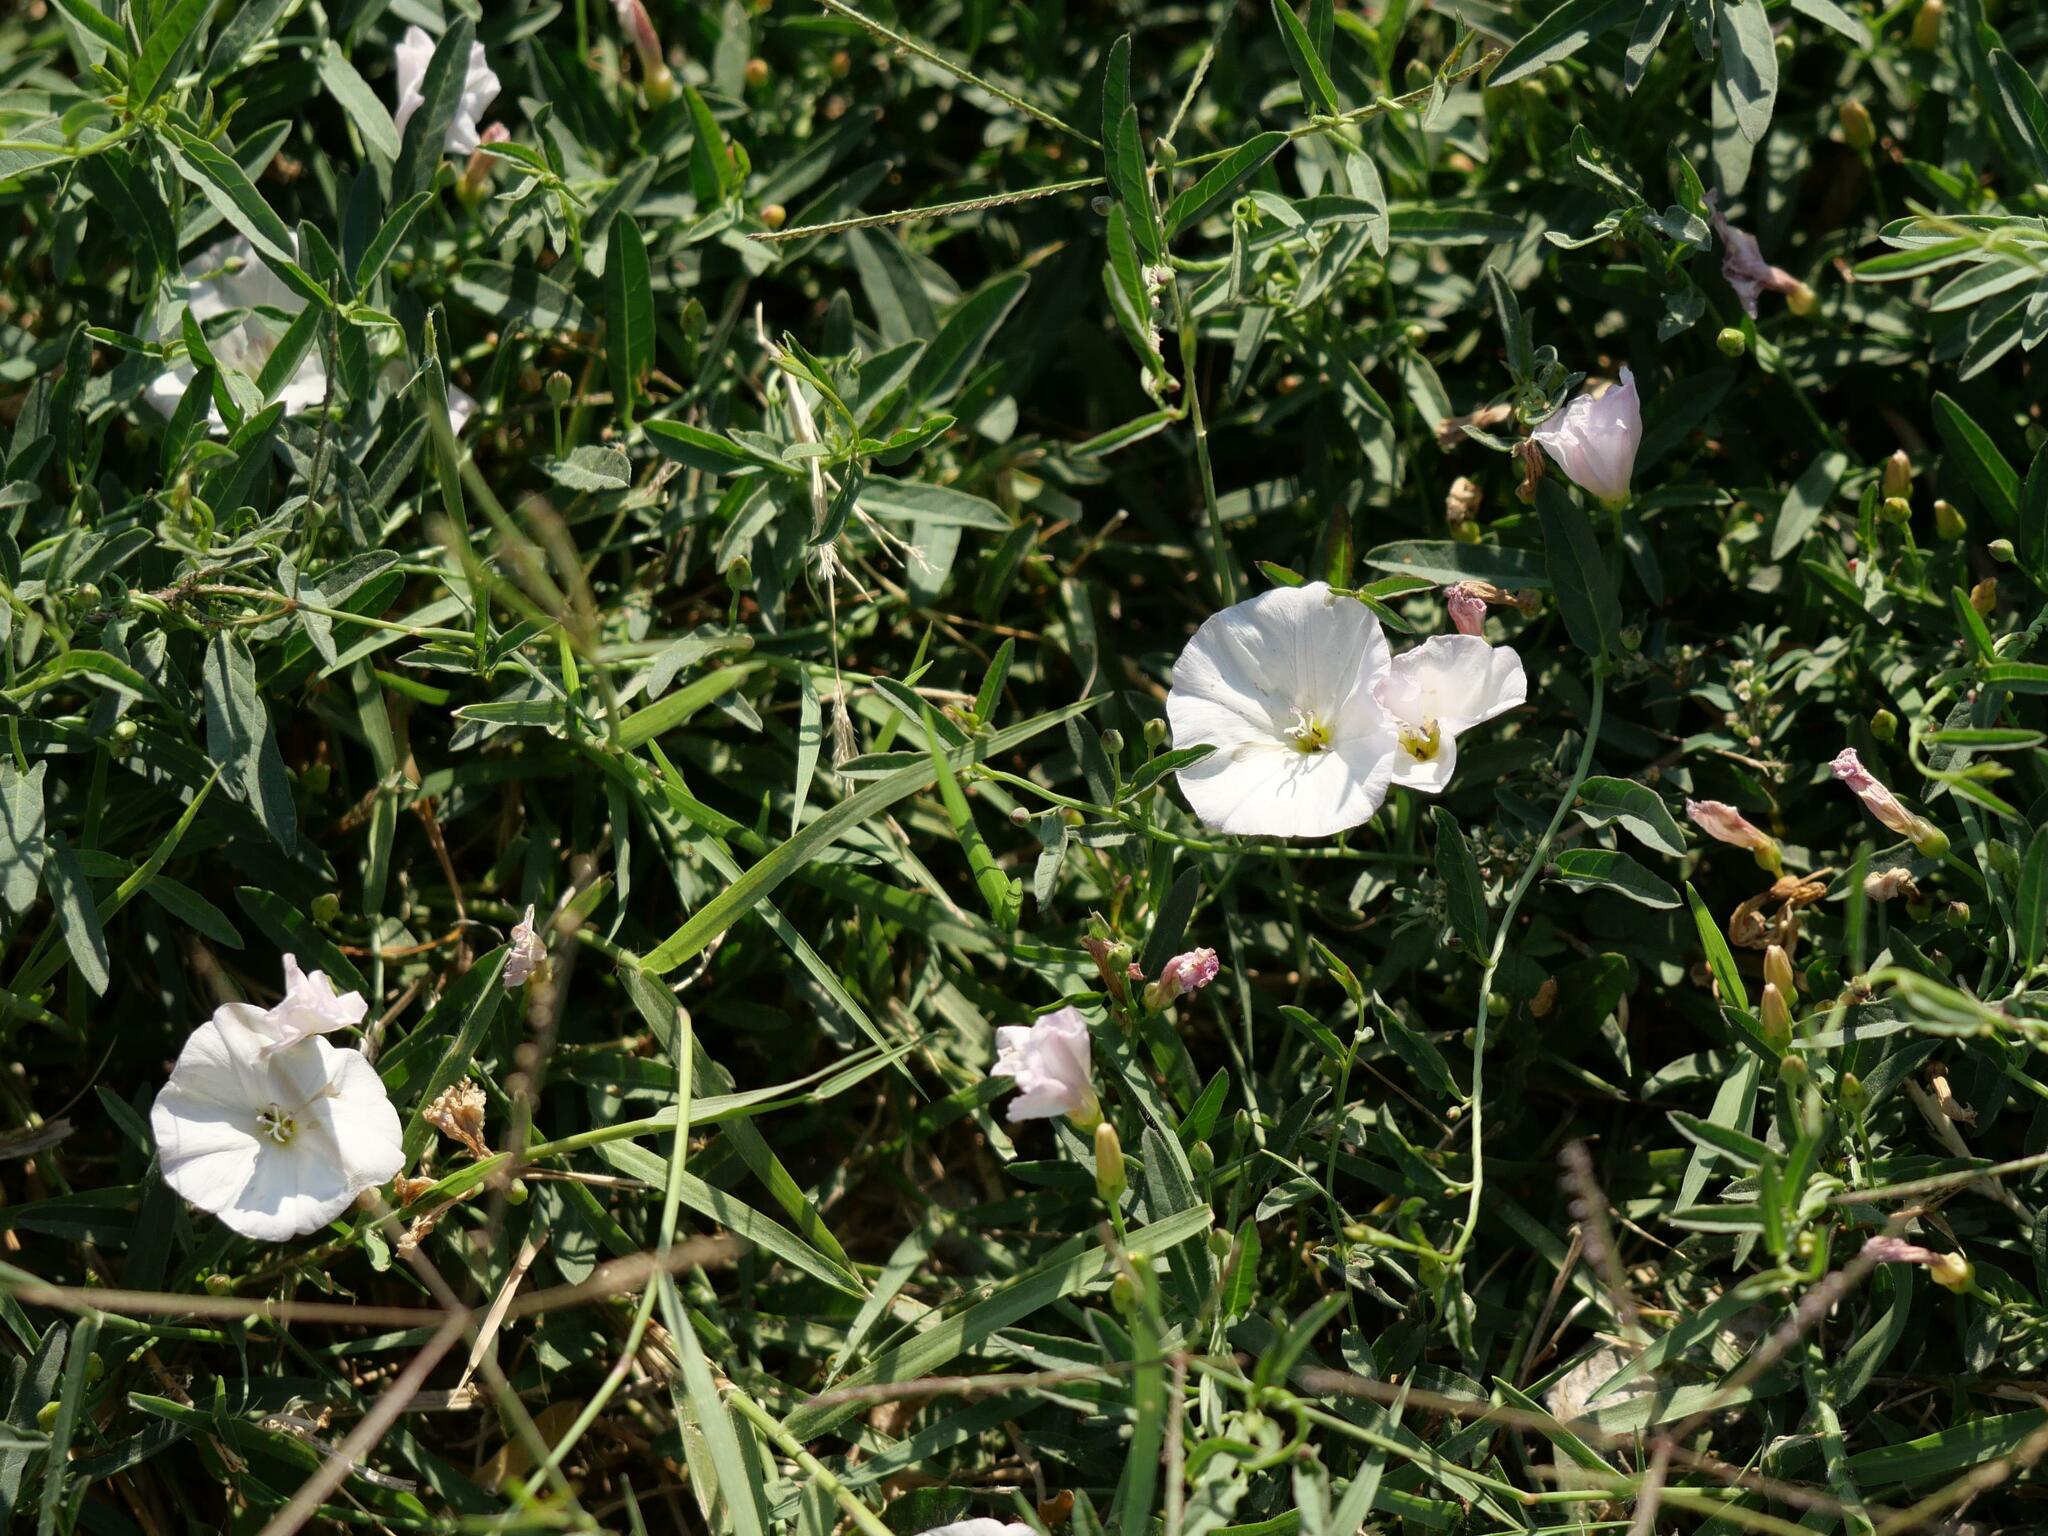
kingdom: Plantae
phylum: Tracheophyta
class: Magnoliopsida
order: Solanales
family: Convolvulaceae
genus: Convolvulus
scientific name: Convolvulus arvensis
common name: Field bindweed
